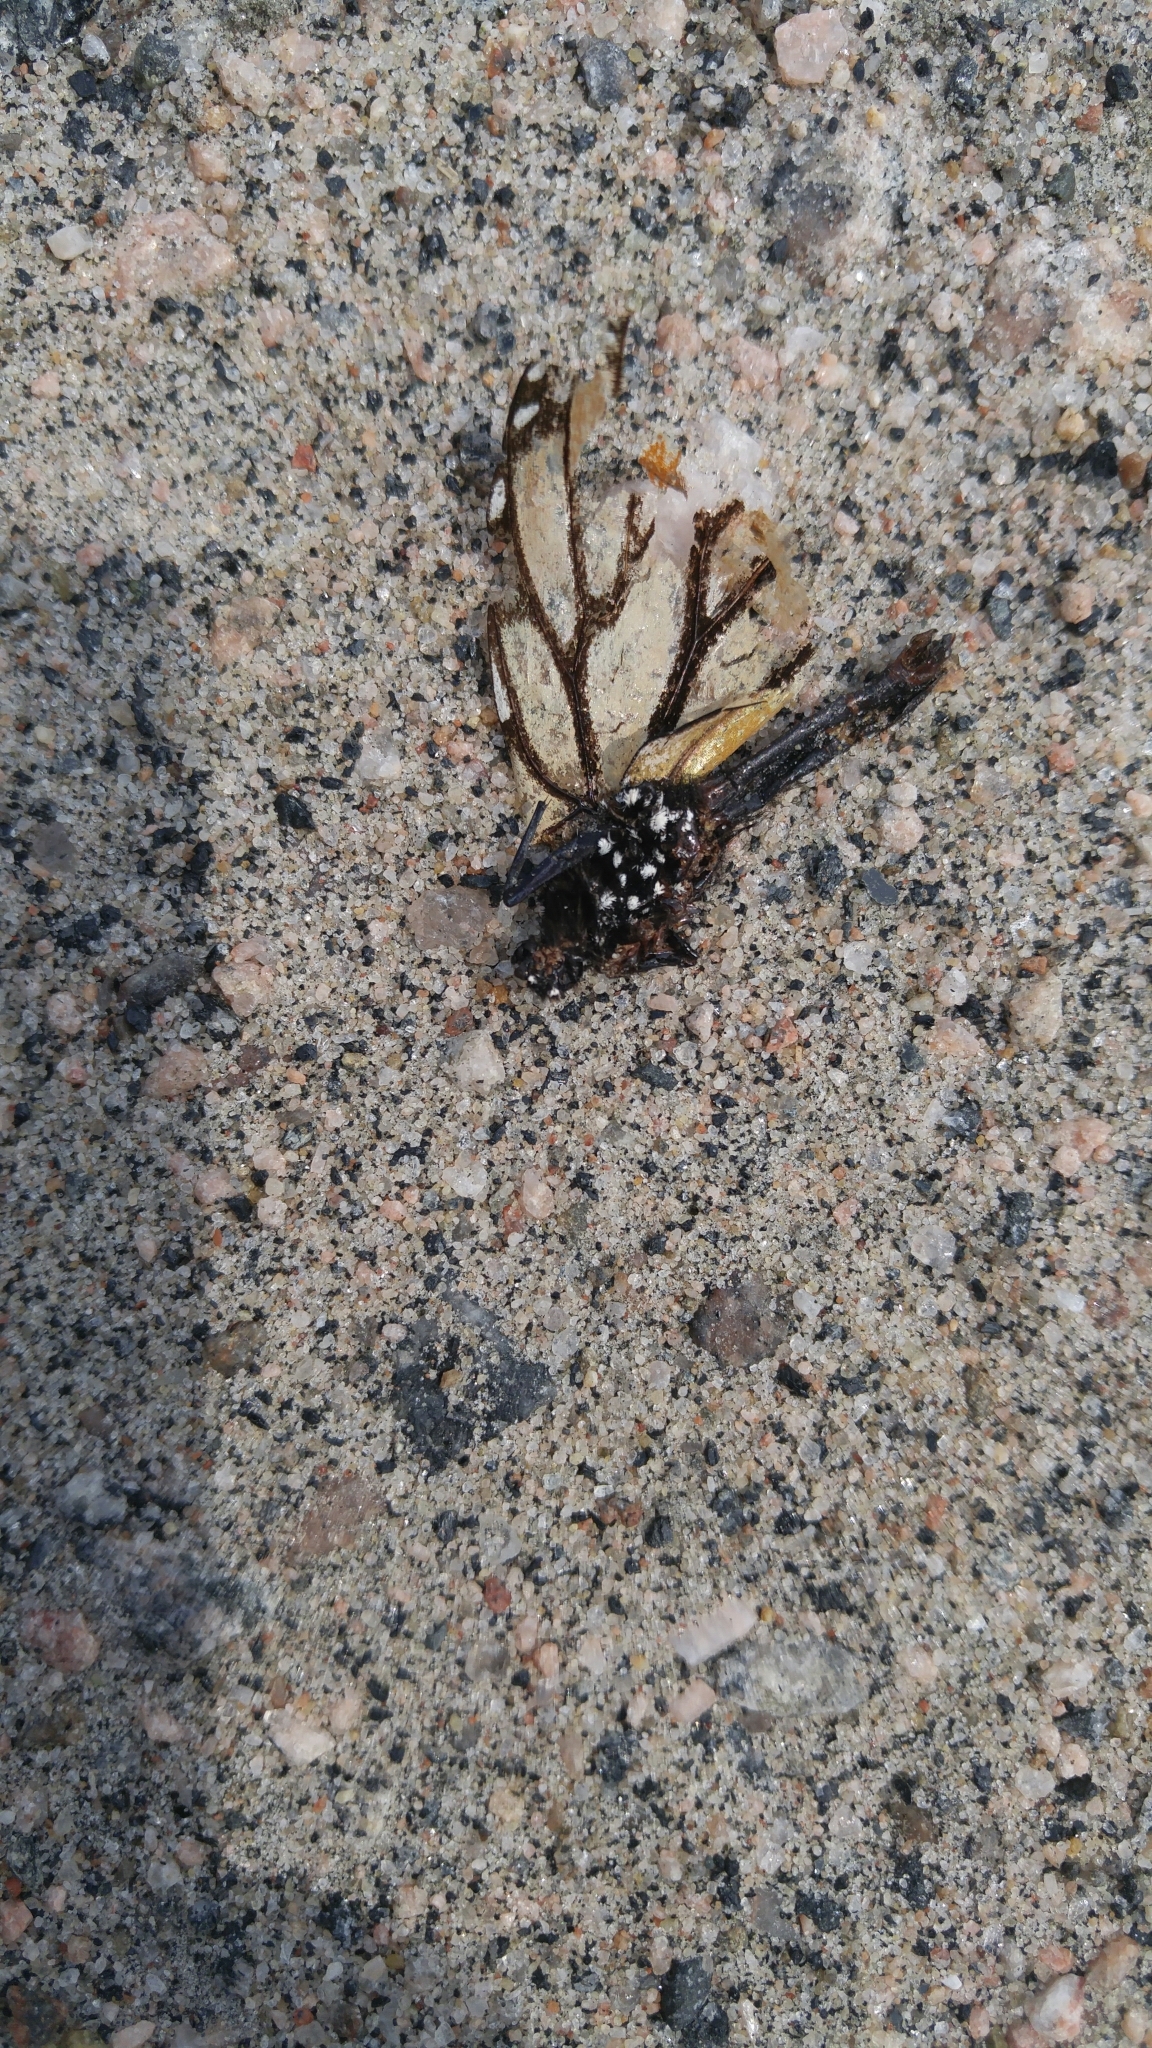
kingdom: Animalia
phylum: Arthropoda
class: Insecta
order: Lepidoptera
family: Nymphalidae
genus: Danaus
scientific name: Danaus plexippus
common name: Monarch
